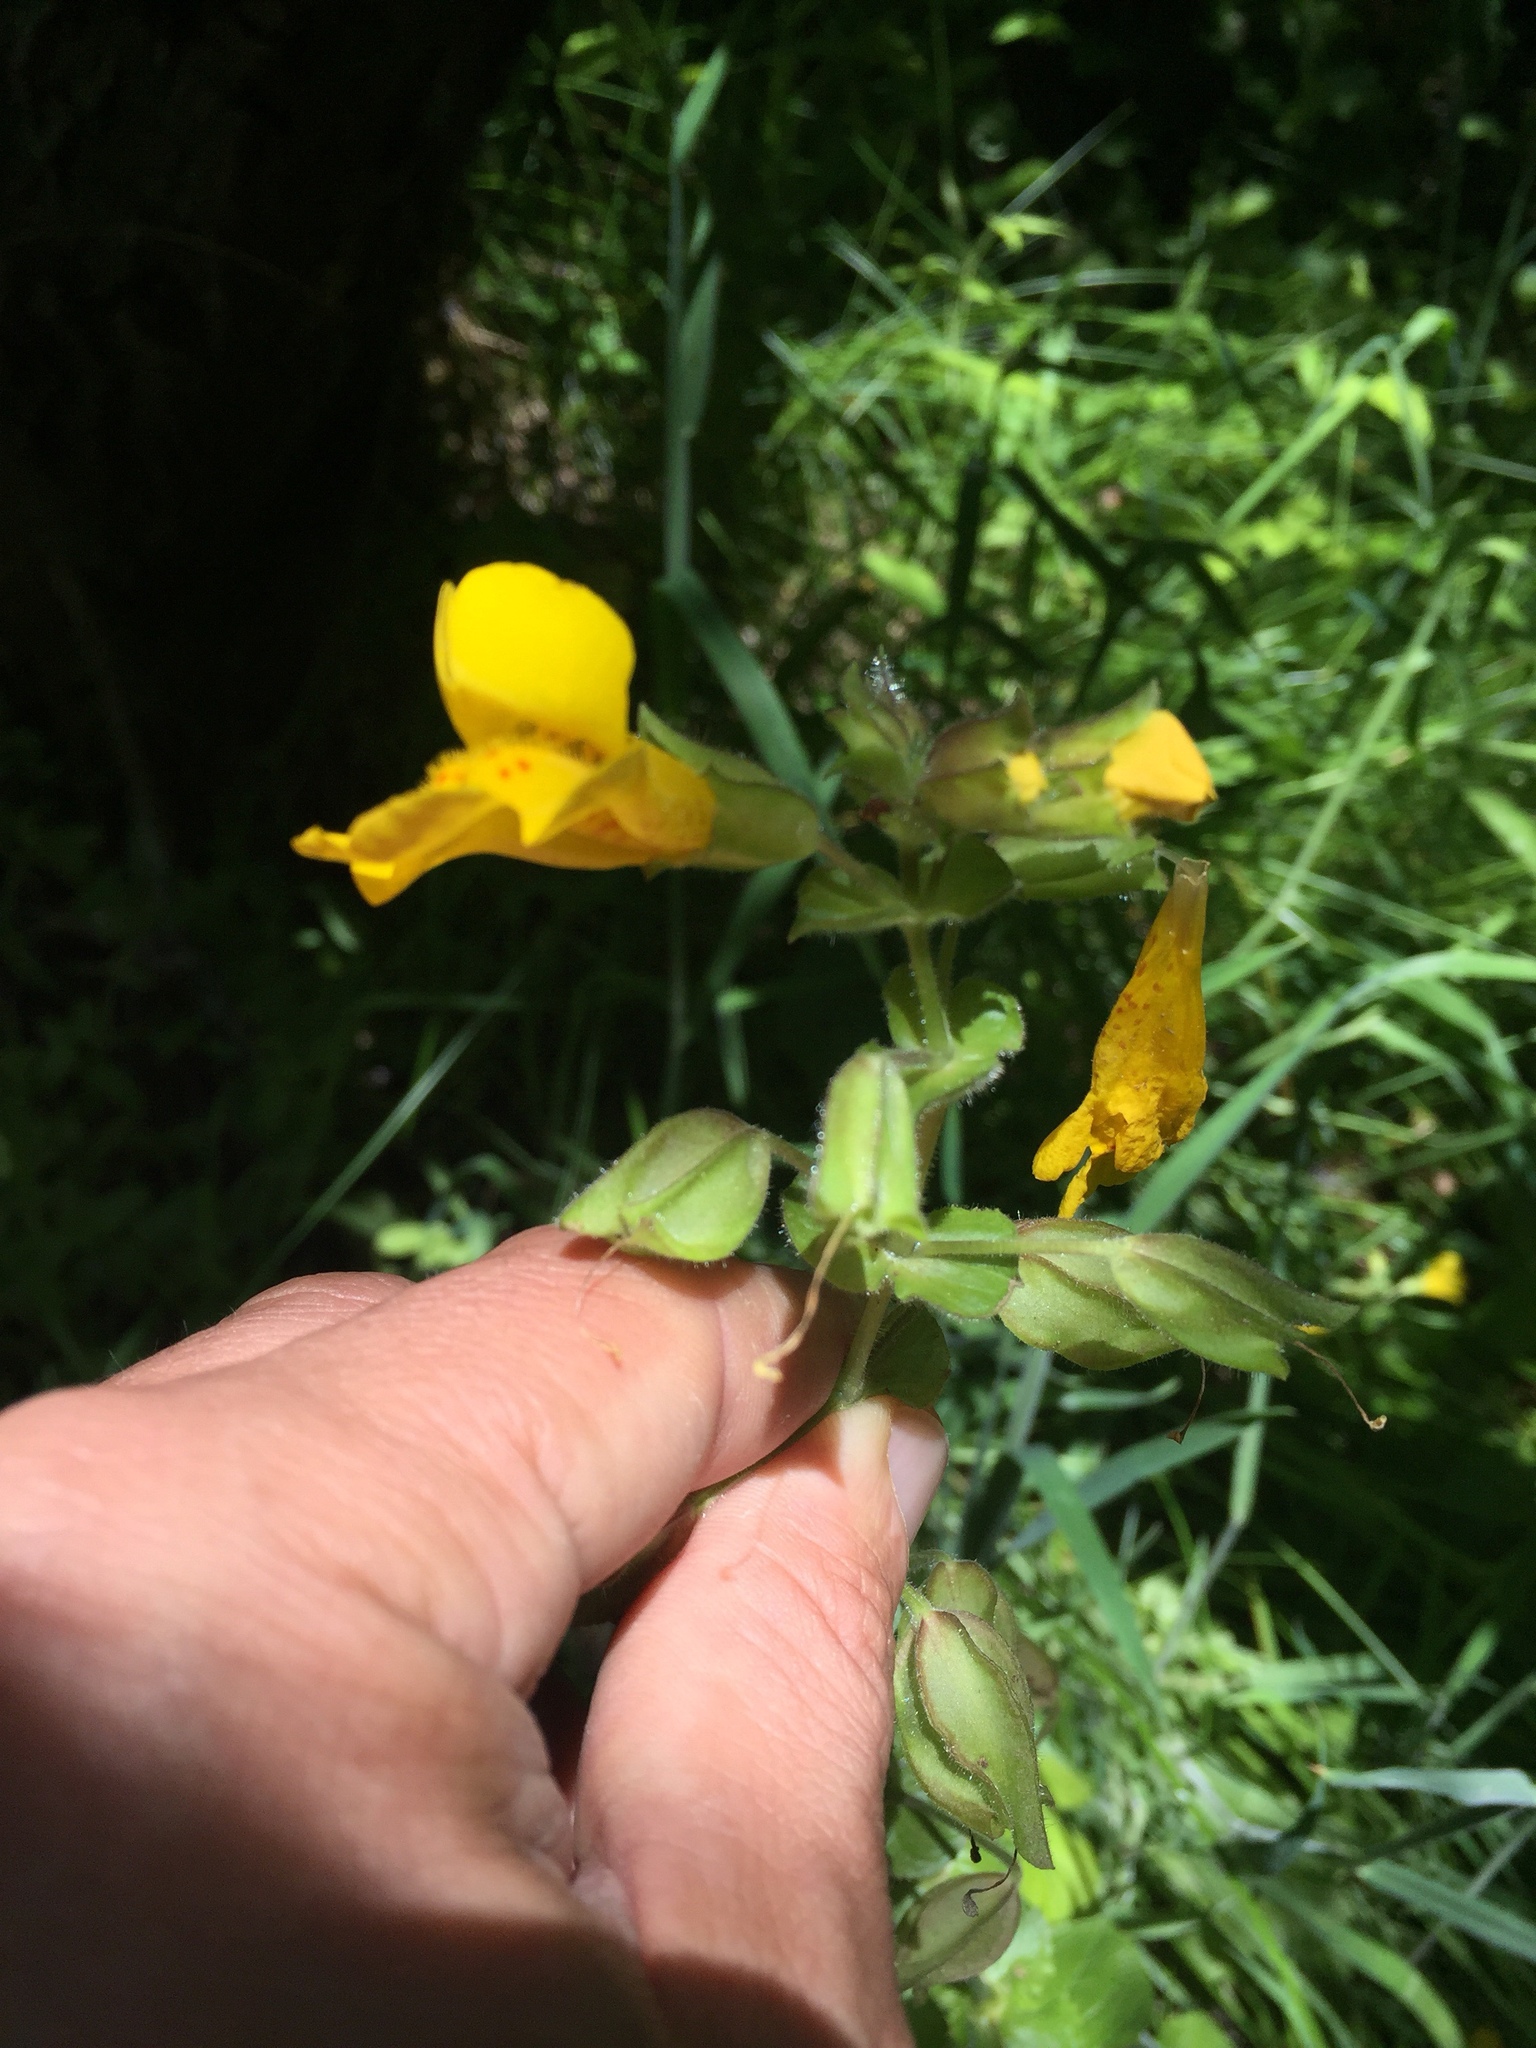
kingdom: Plantae
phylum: Tracheophyta
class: Magnoliopsida
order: Lamiales
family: Phrymaceae
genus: Erythranthe
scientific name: Erythranthe guttata
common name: Monkeyflower
